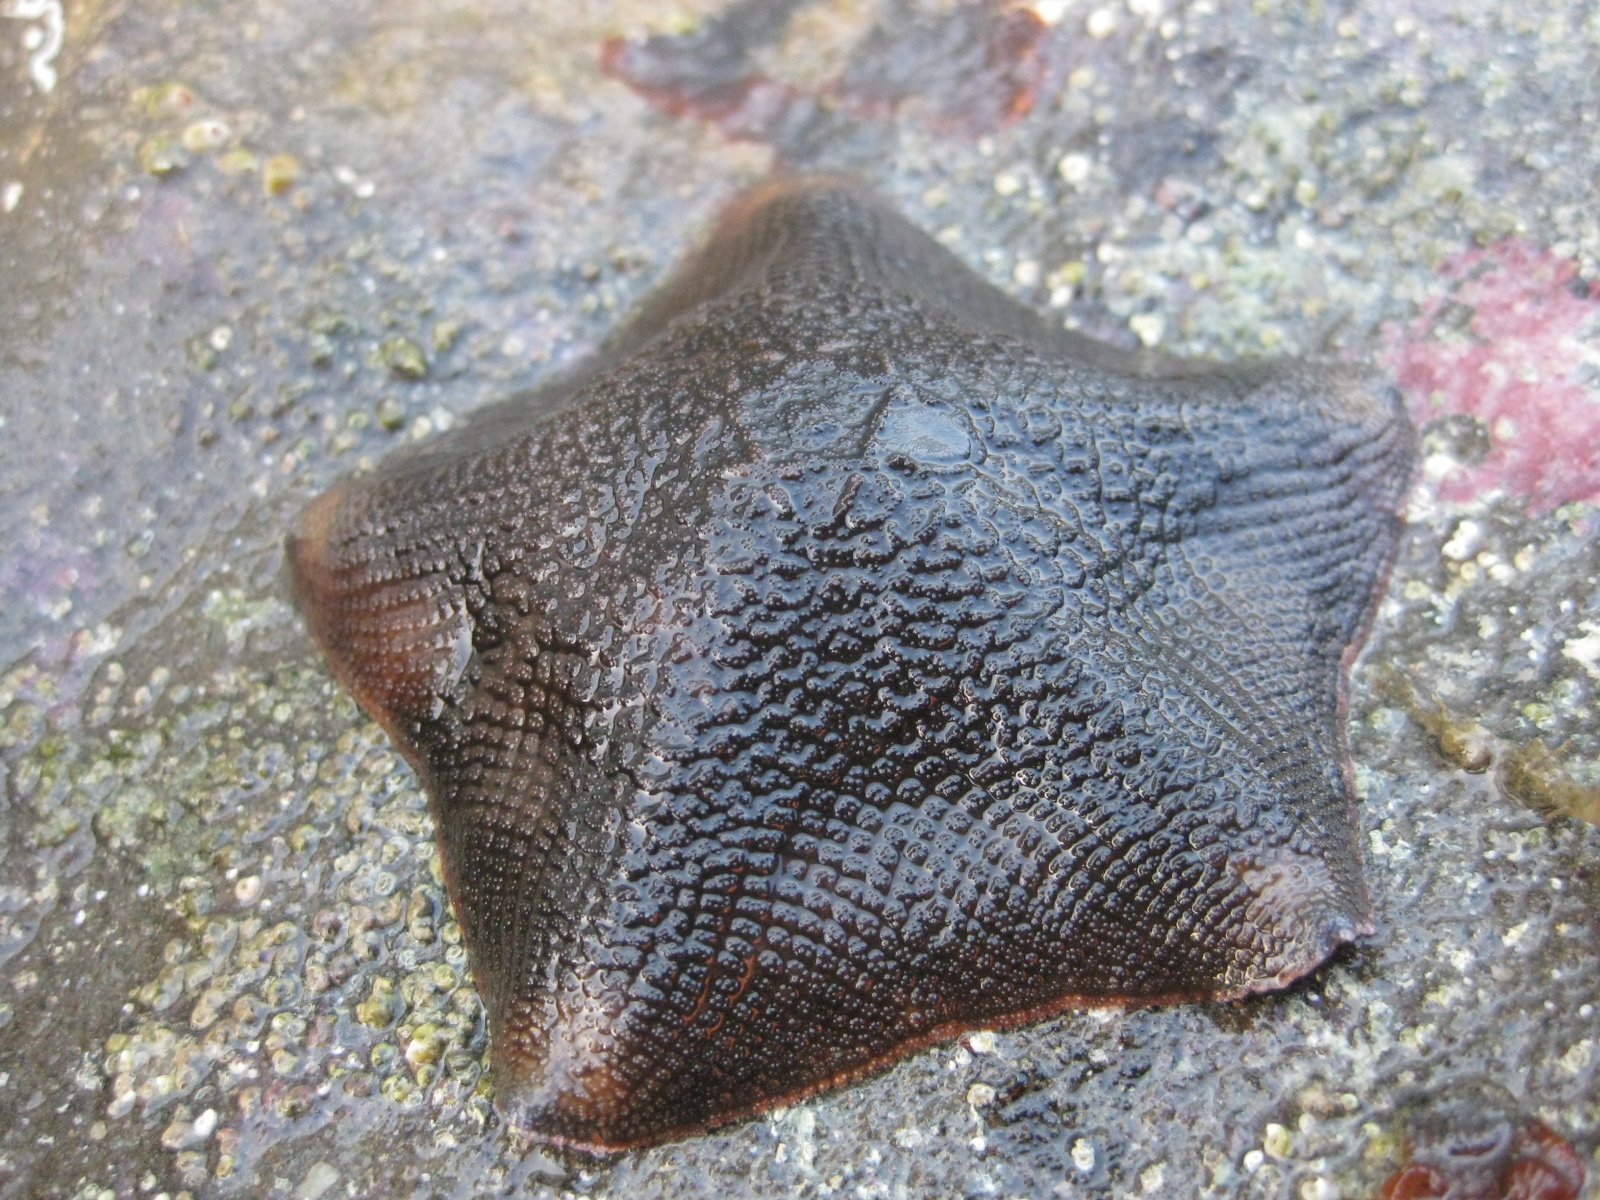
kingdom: Animalia
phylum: Echinodermata
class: Asteroidea
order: Valvatida
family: Asterinidae
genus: Patiriella
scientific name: Patiriella regularis
